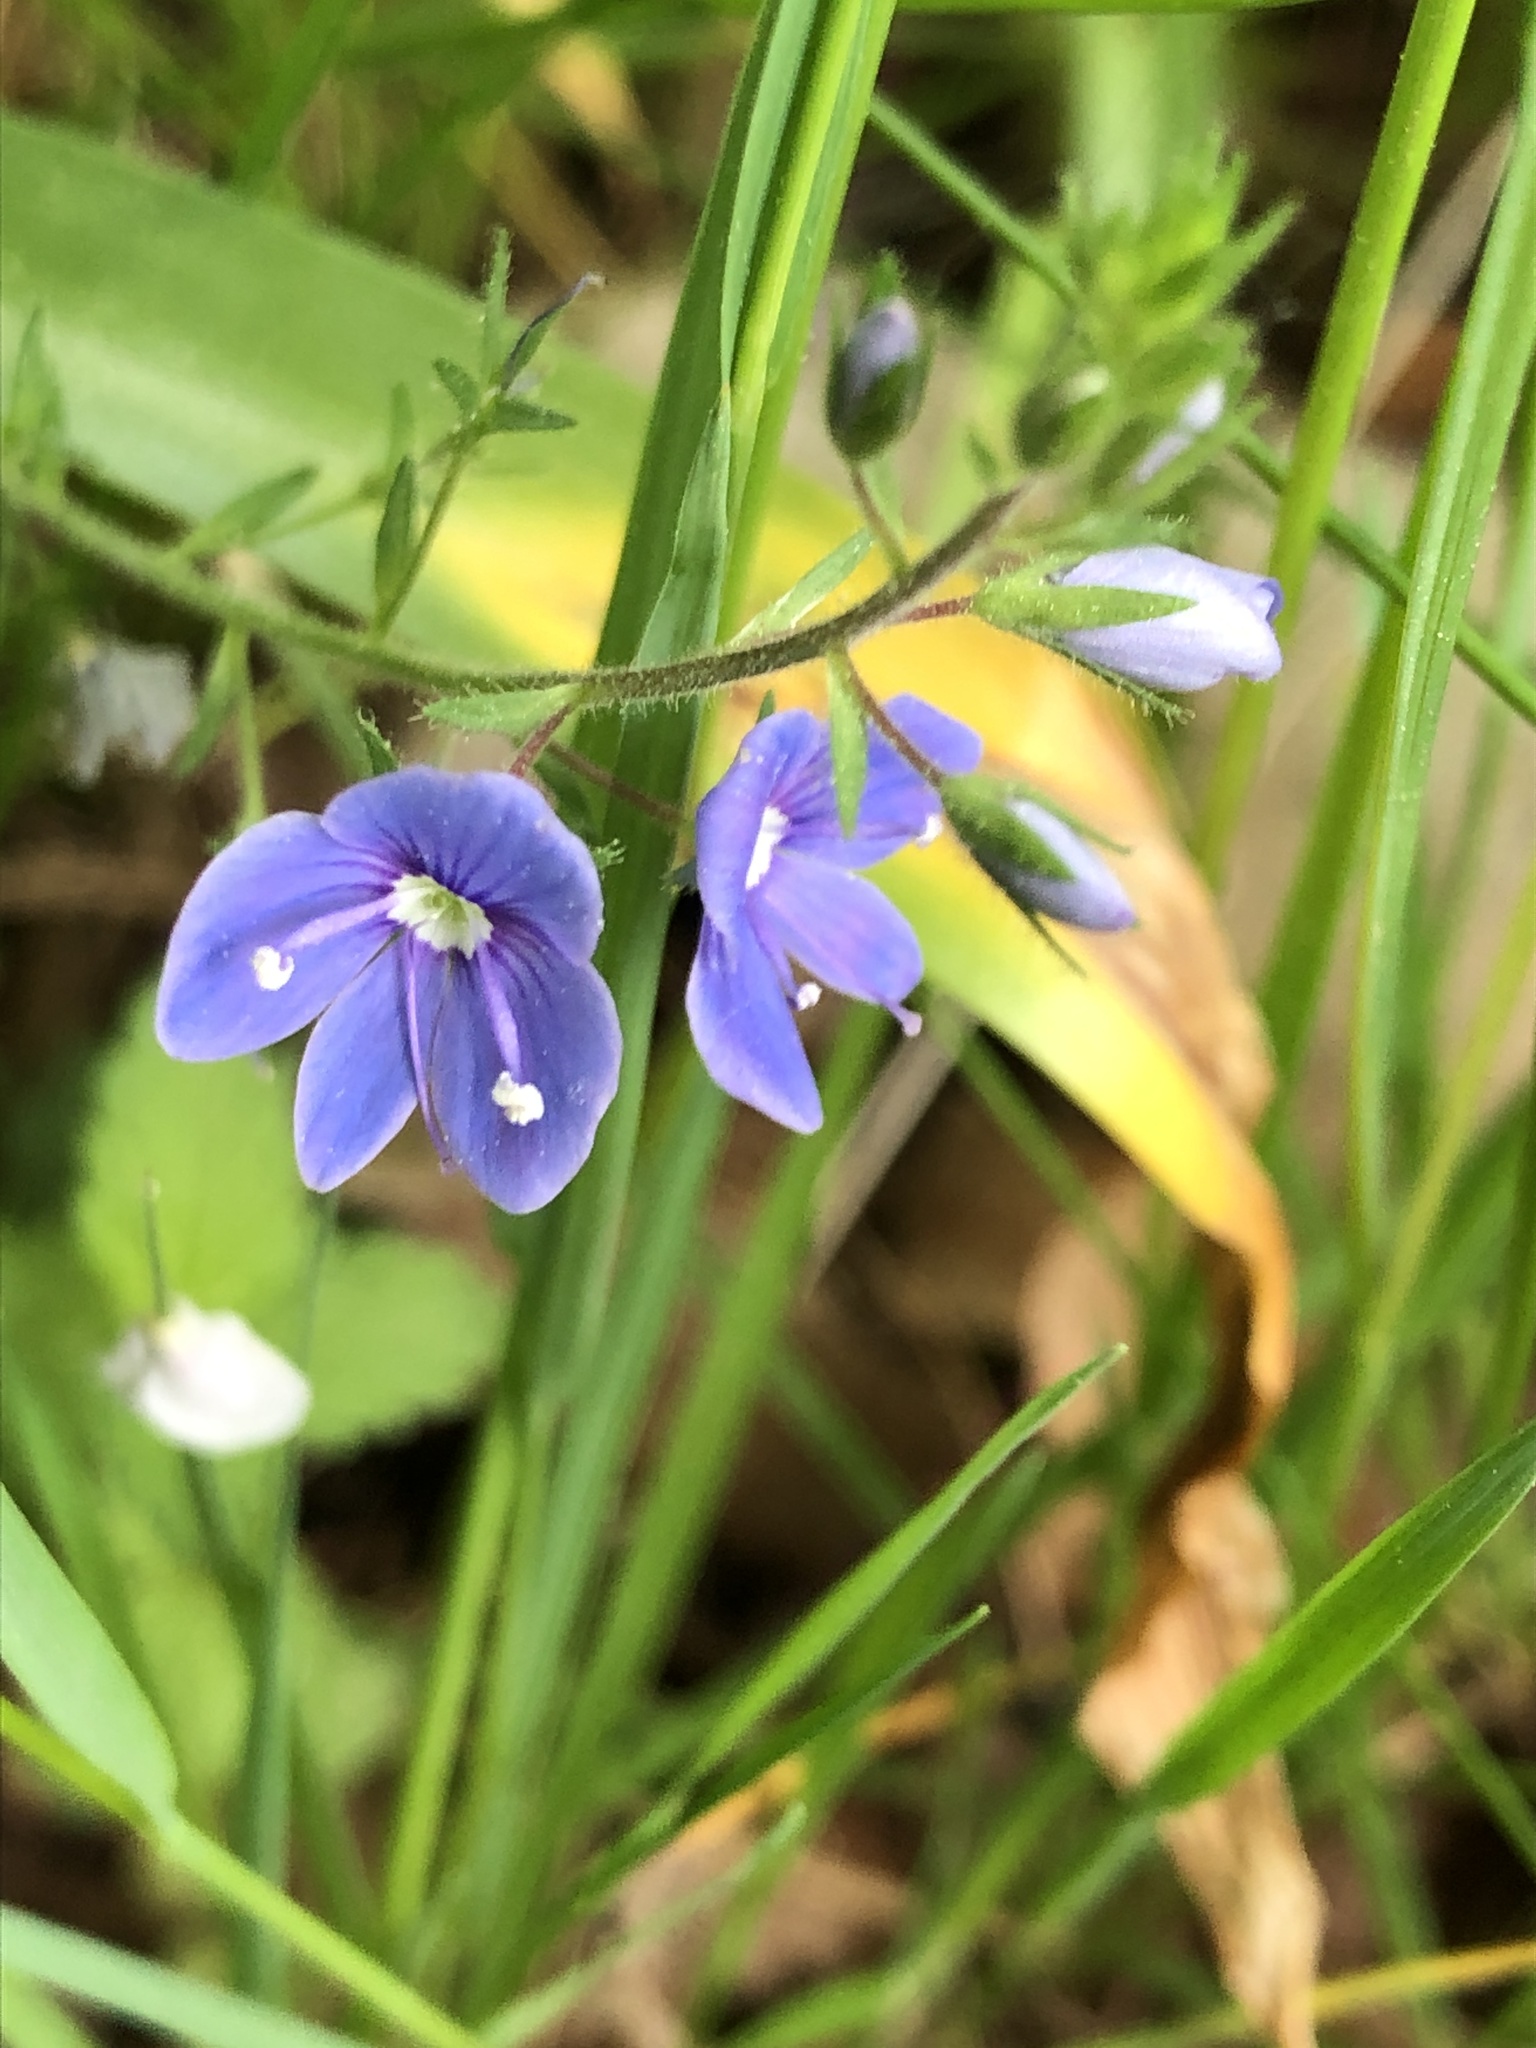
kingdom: Plantae
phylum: Tracheophyta
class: Magnoliopsida
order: Lamiales
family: Plantaginaceae
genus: Veronica
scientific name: Veronica chamaedrys
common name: Germander speedwell
